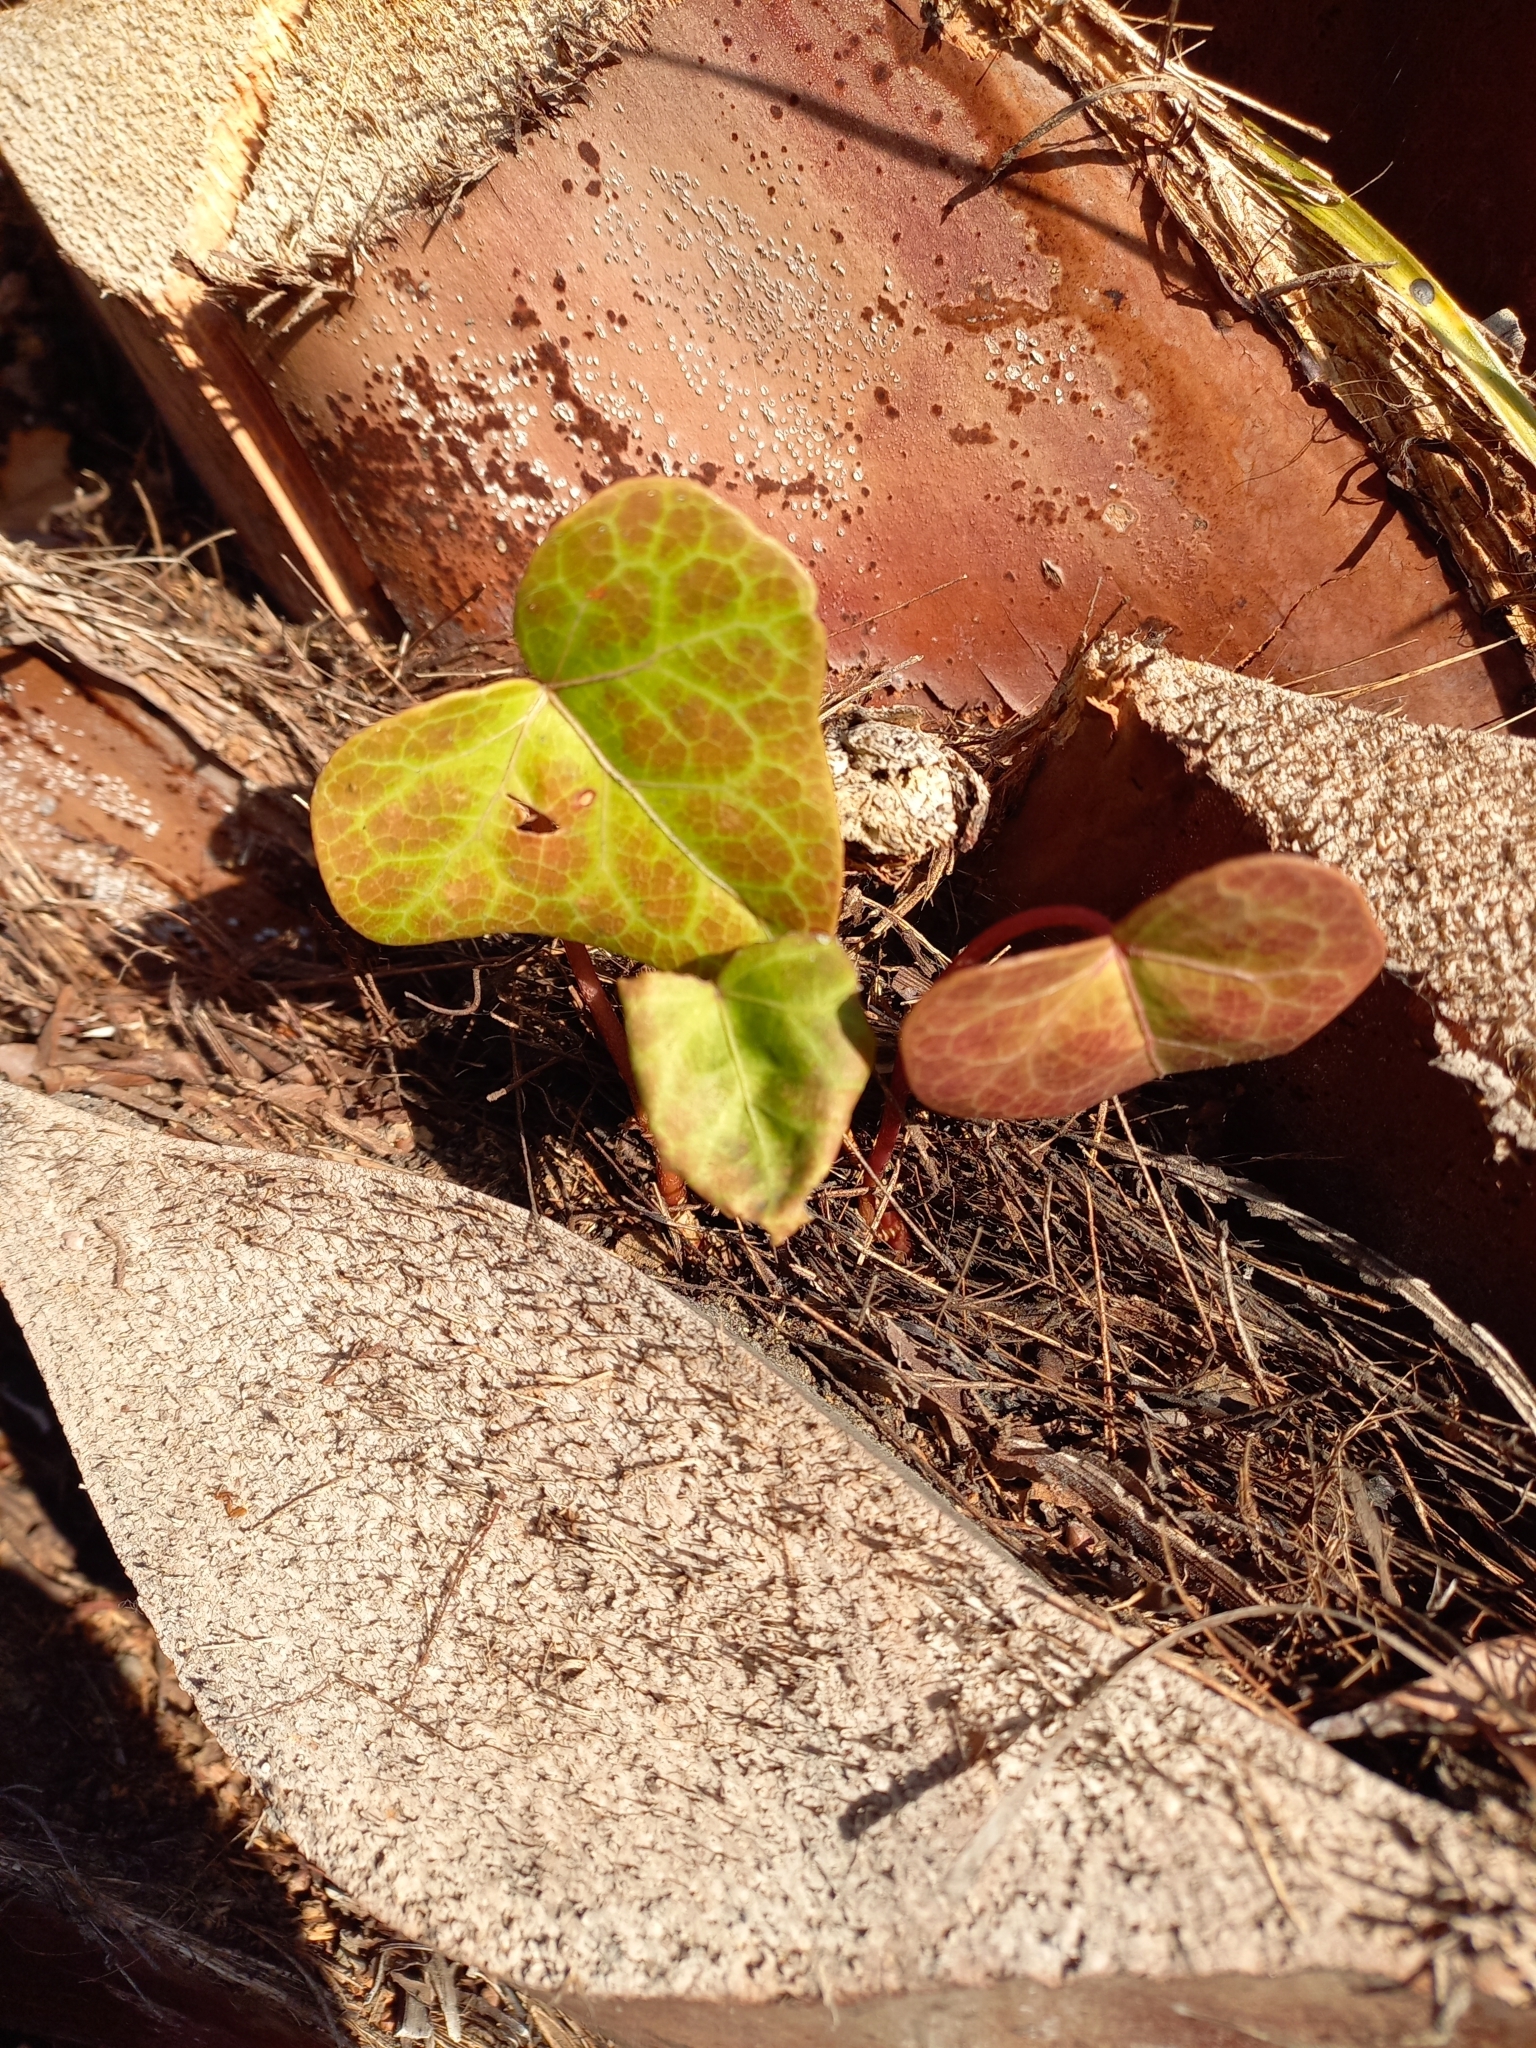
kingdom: Plantae
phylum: Tracheophyta
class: Magnoliopsida
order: Apiales
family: Araliaceae
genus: Hedera
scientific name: Hedera helix
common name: Ivy
